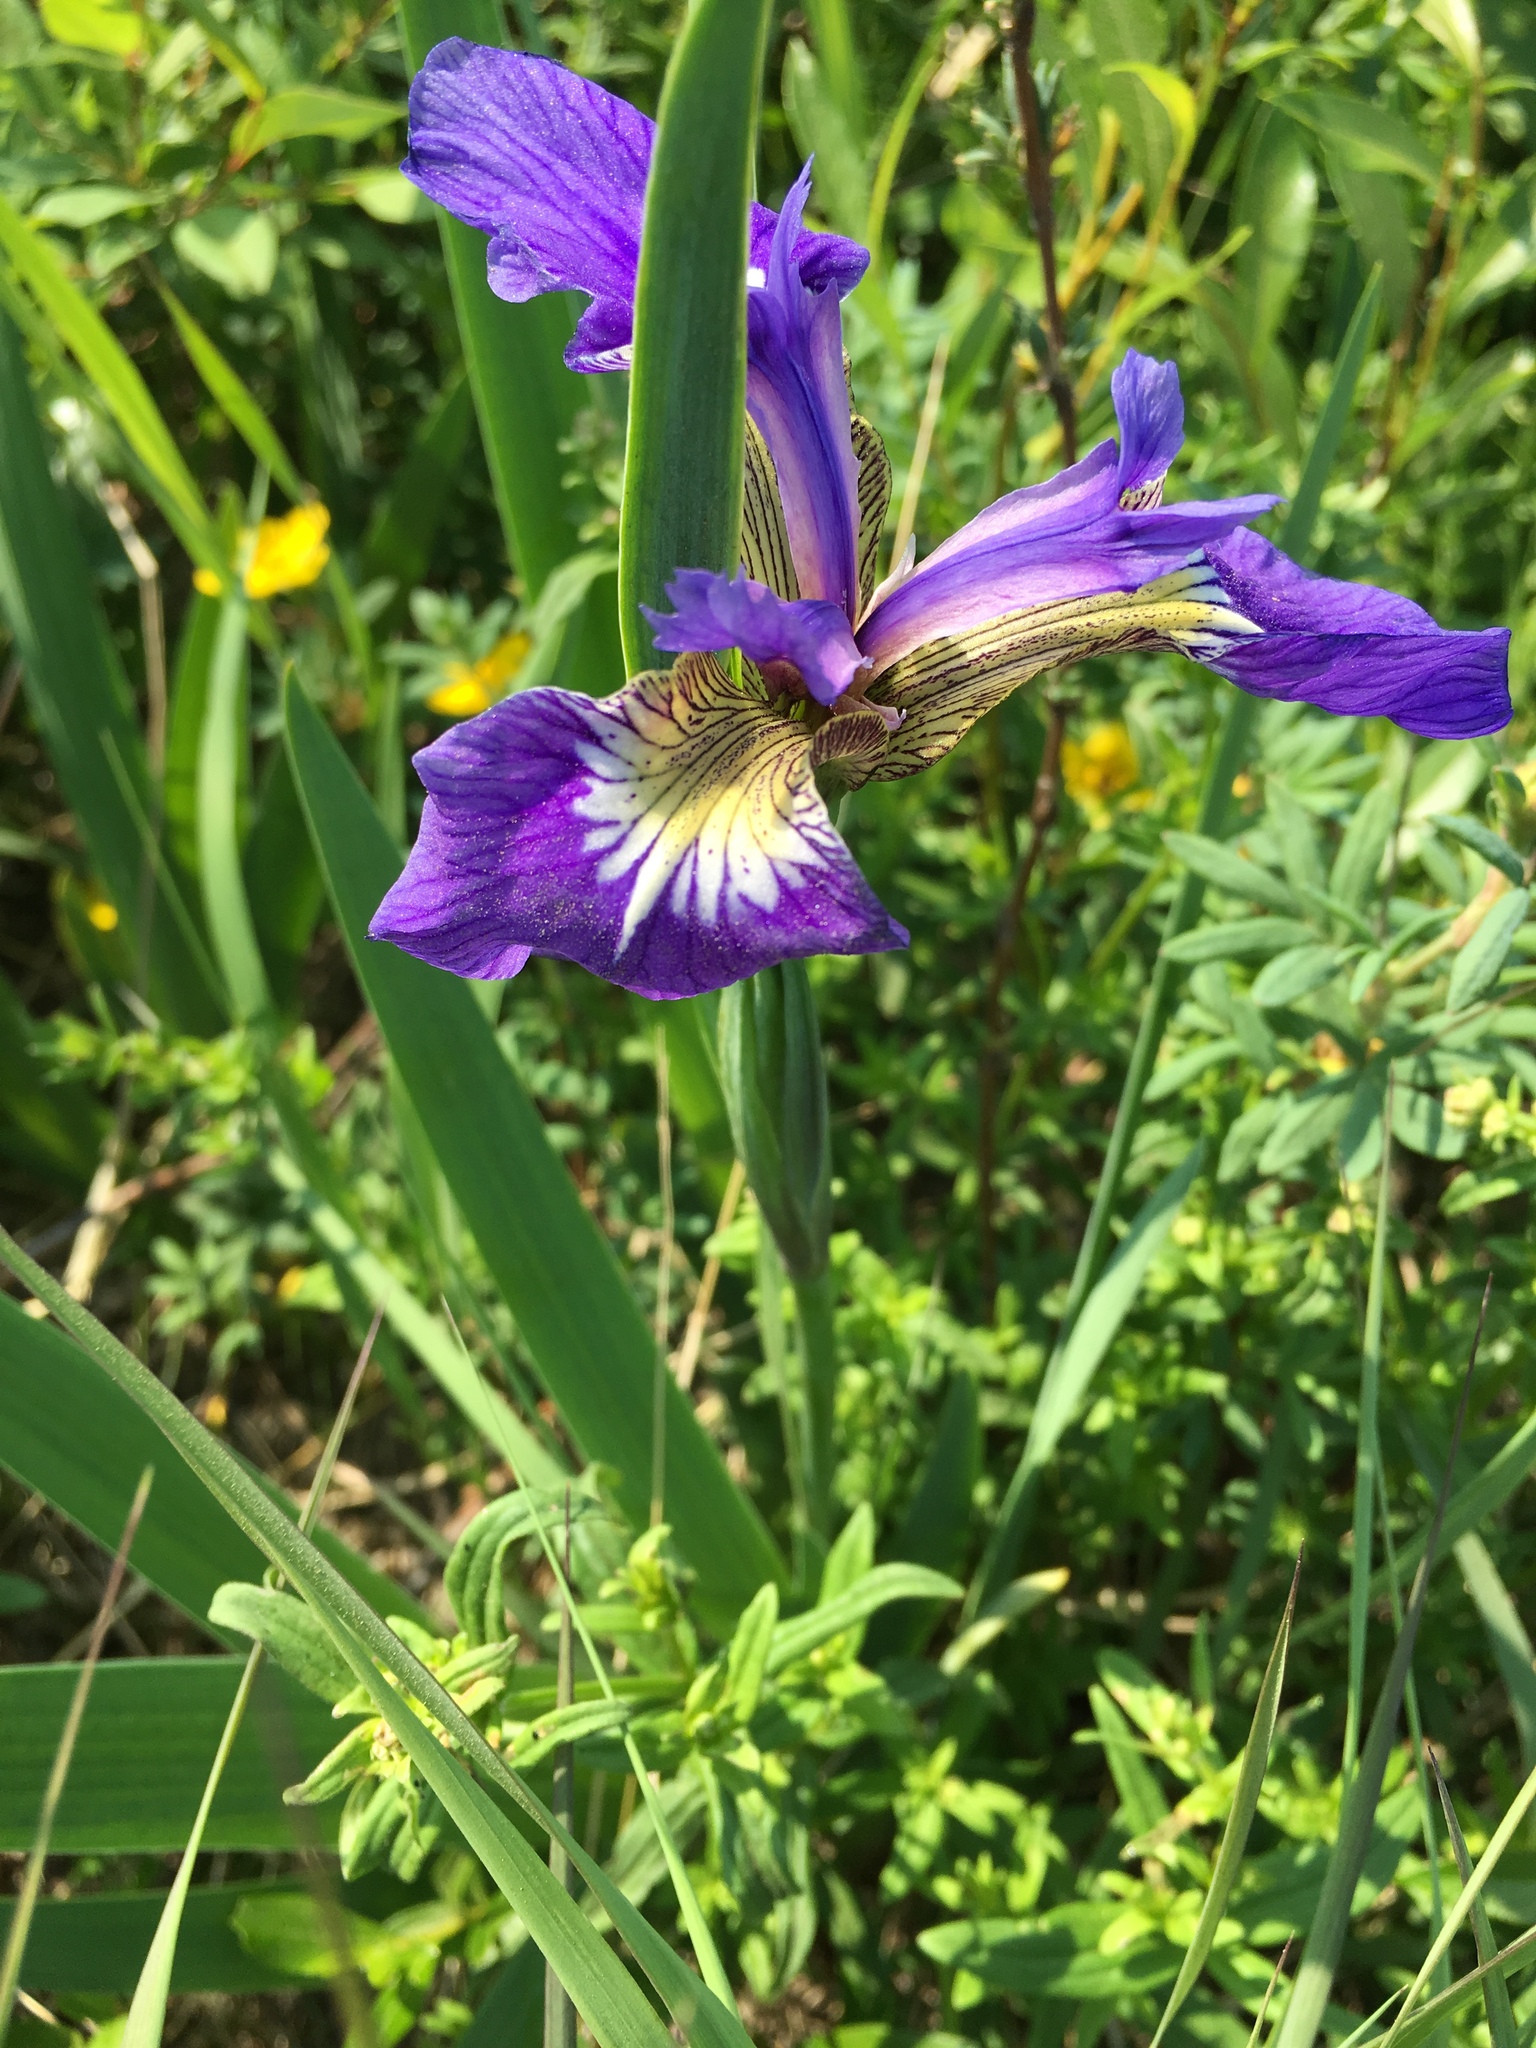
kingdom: Plantae
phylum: Tracheophyta
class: Liliopsida
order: Asparagales
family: Iridaceae
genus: Iris
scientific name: Iris setosa
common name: Arctic blue flag
